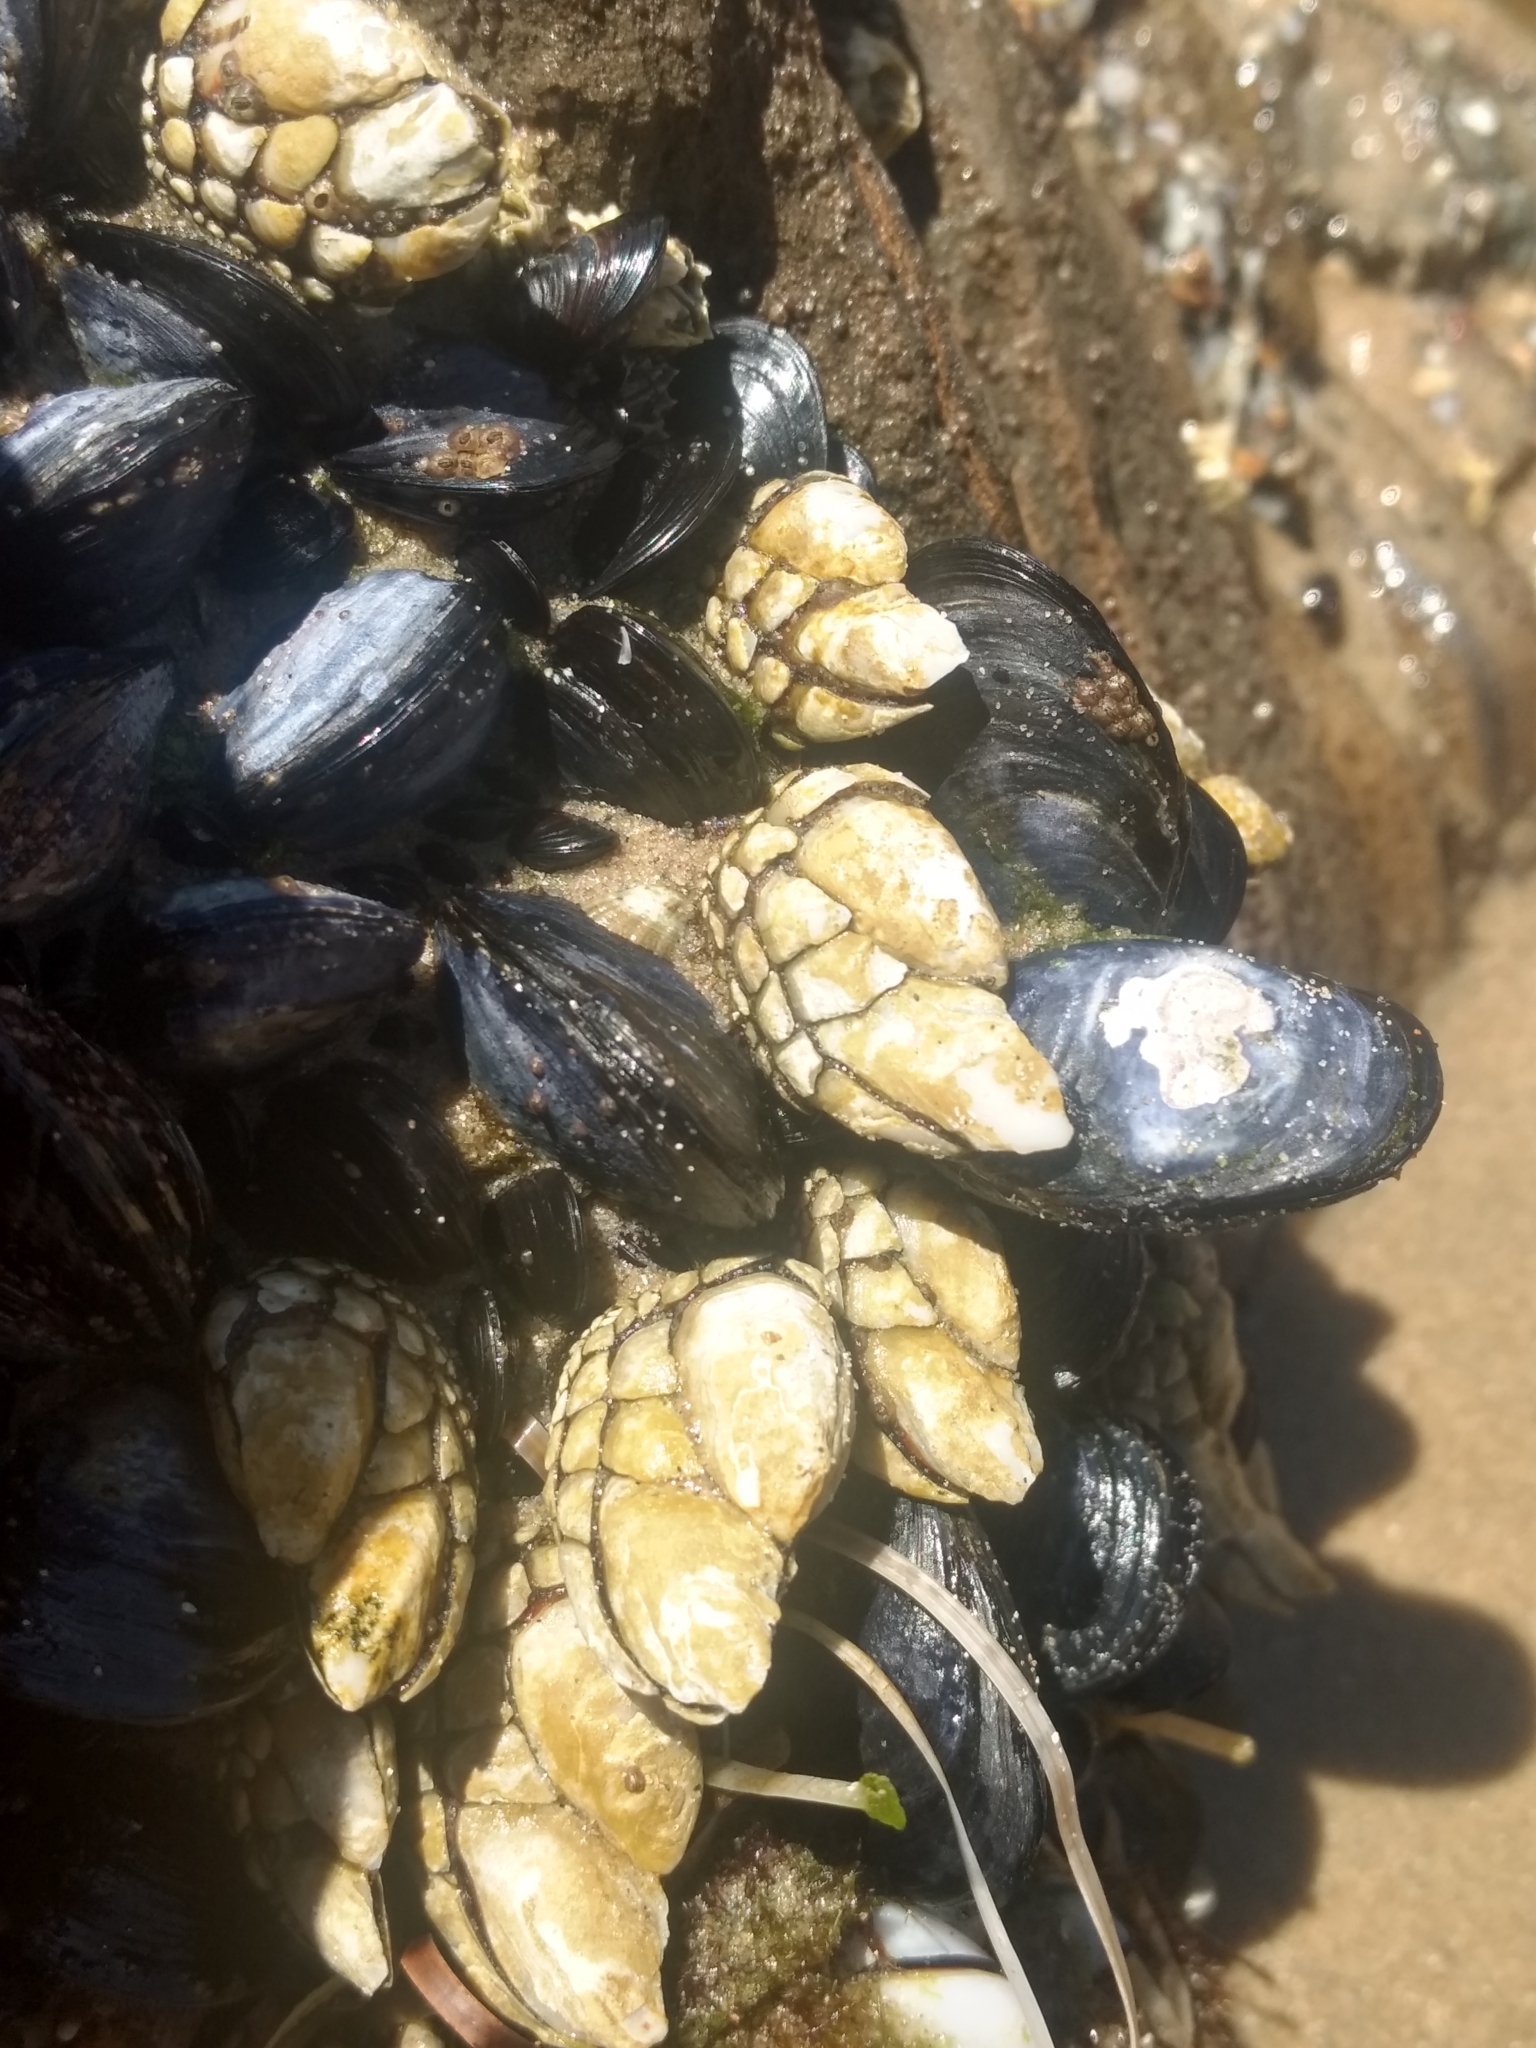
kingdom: Animalia
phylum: Arthropoda
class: Maxillopoda
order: Pedunculata
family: Pollicipedidae
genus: Pollicipes
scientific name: Pollicipes polymerus
